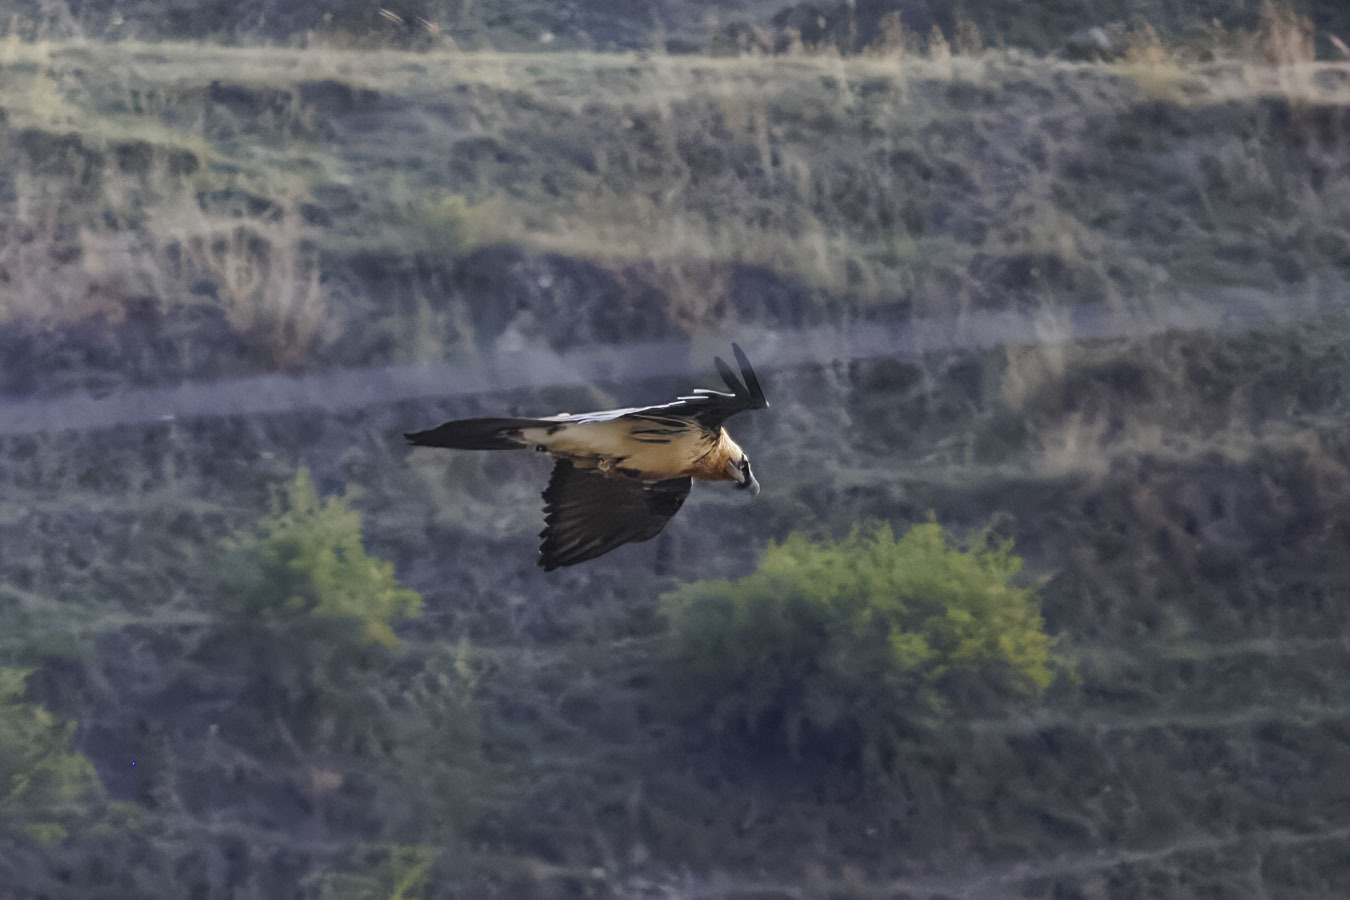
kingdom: Animalia
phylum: Chordata
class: Aves
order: Accipitriformes
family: Accipitridae
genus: Gypaetus
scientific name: Gypaetus barbatus
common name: Bearded vulture
